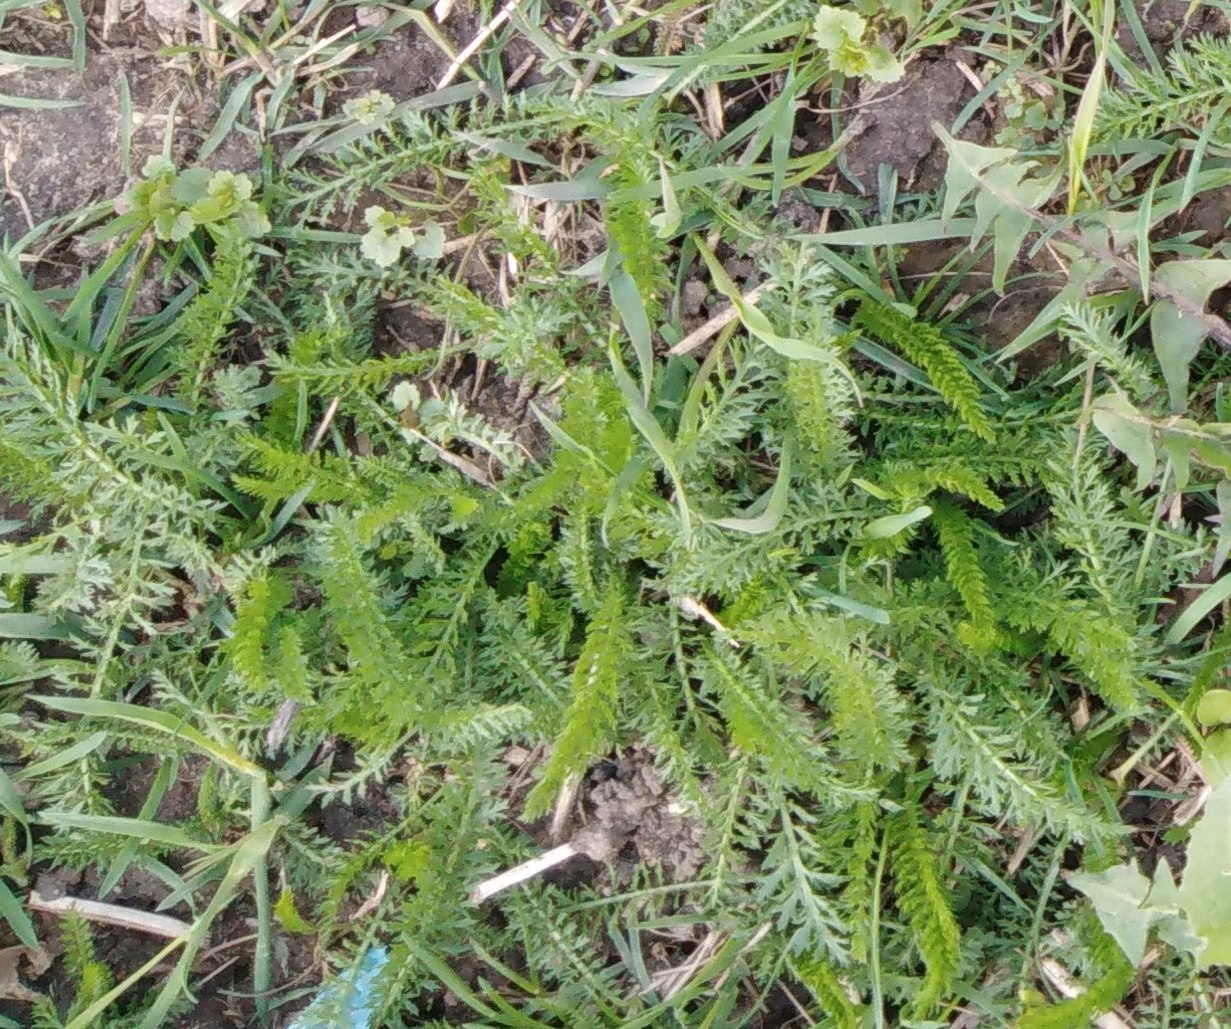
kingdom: Plantae
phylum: Tracheophyta
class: Magnoliopsida
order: Asterales
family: Asteraceae
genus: Achillea
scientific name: Achillea millefolium
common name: Yarrow
